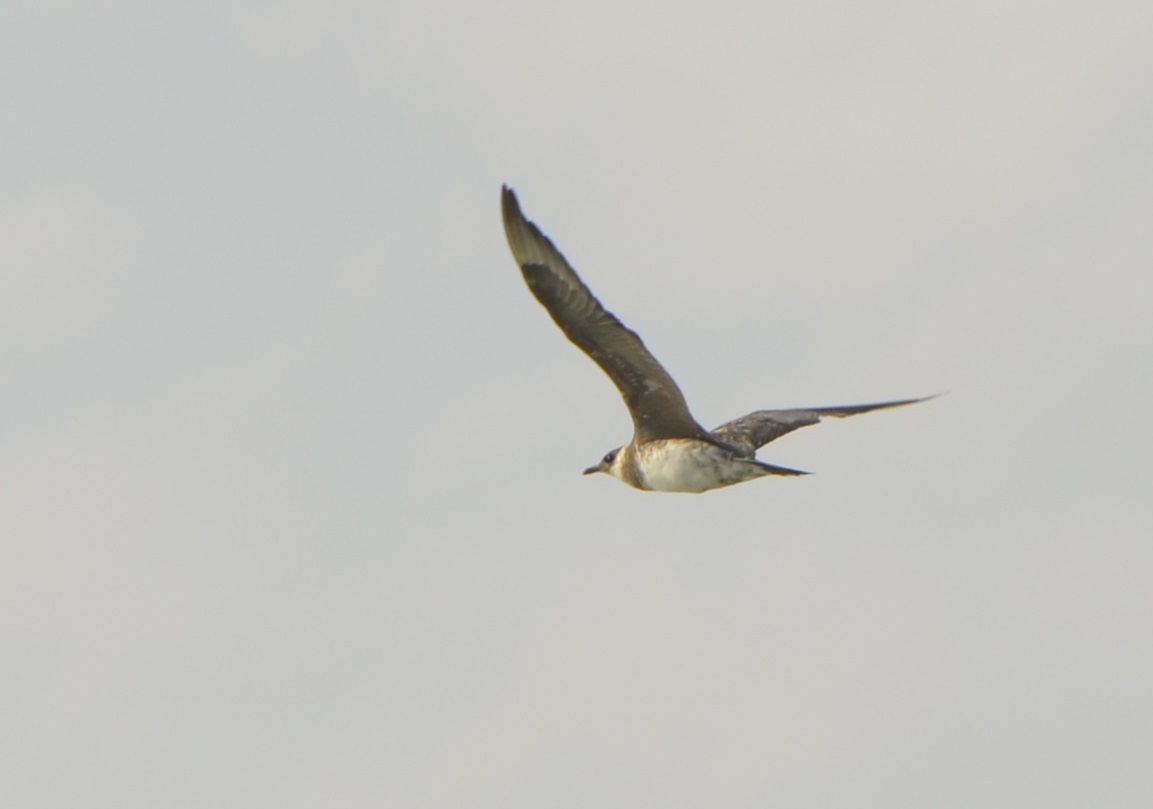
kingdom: Animalia
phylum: Chordata
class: Aves
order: Charadriiformes
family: Stercorariidae
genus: Stercorarius
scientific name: Stercorarius pomarinus
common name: Pomarine jaeger
